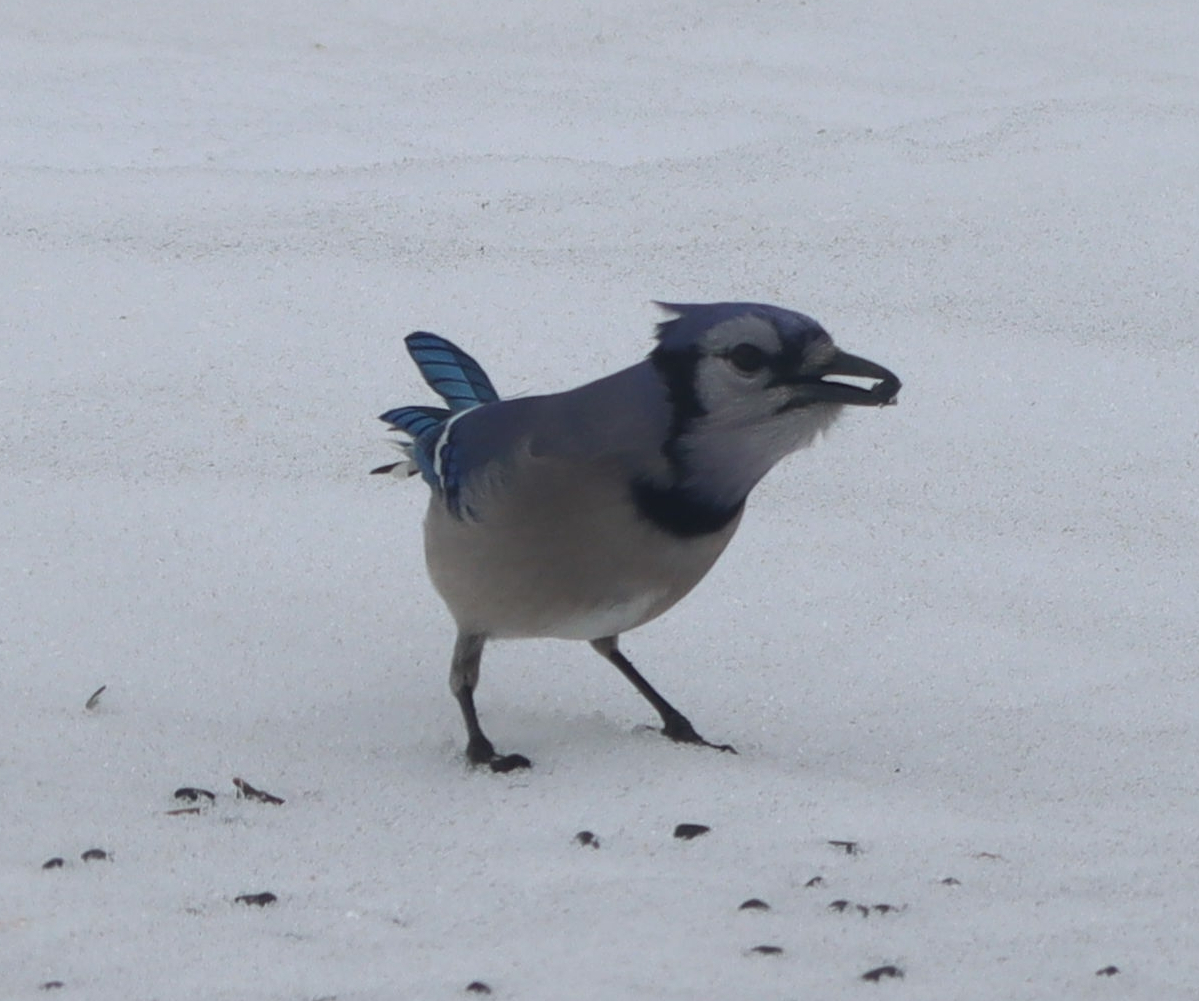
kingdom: Animalia
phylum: Chordata
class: Aves
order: Passeriformes
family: Corvidae
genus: Cyanocitta
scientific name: Cyanocitta cristata
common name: Blue jay
